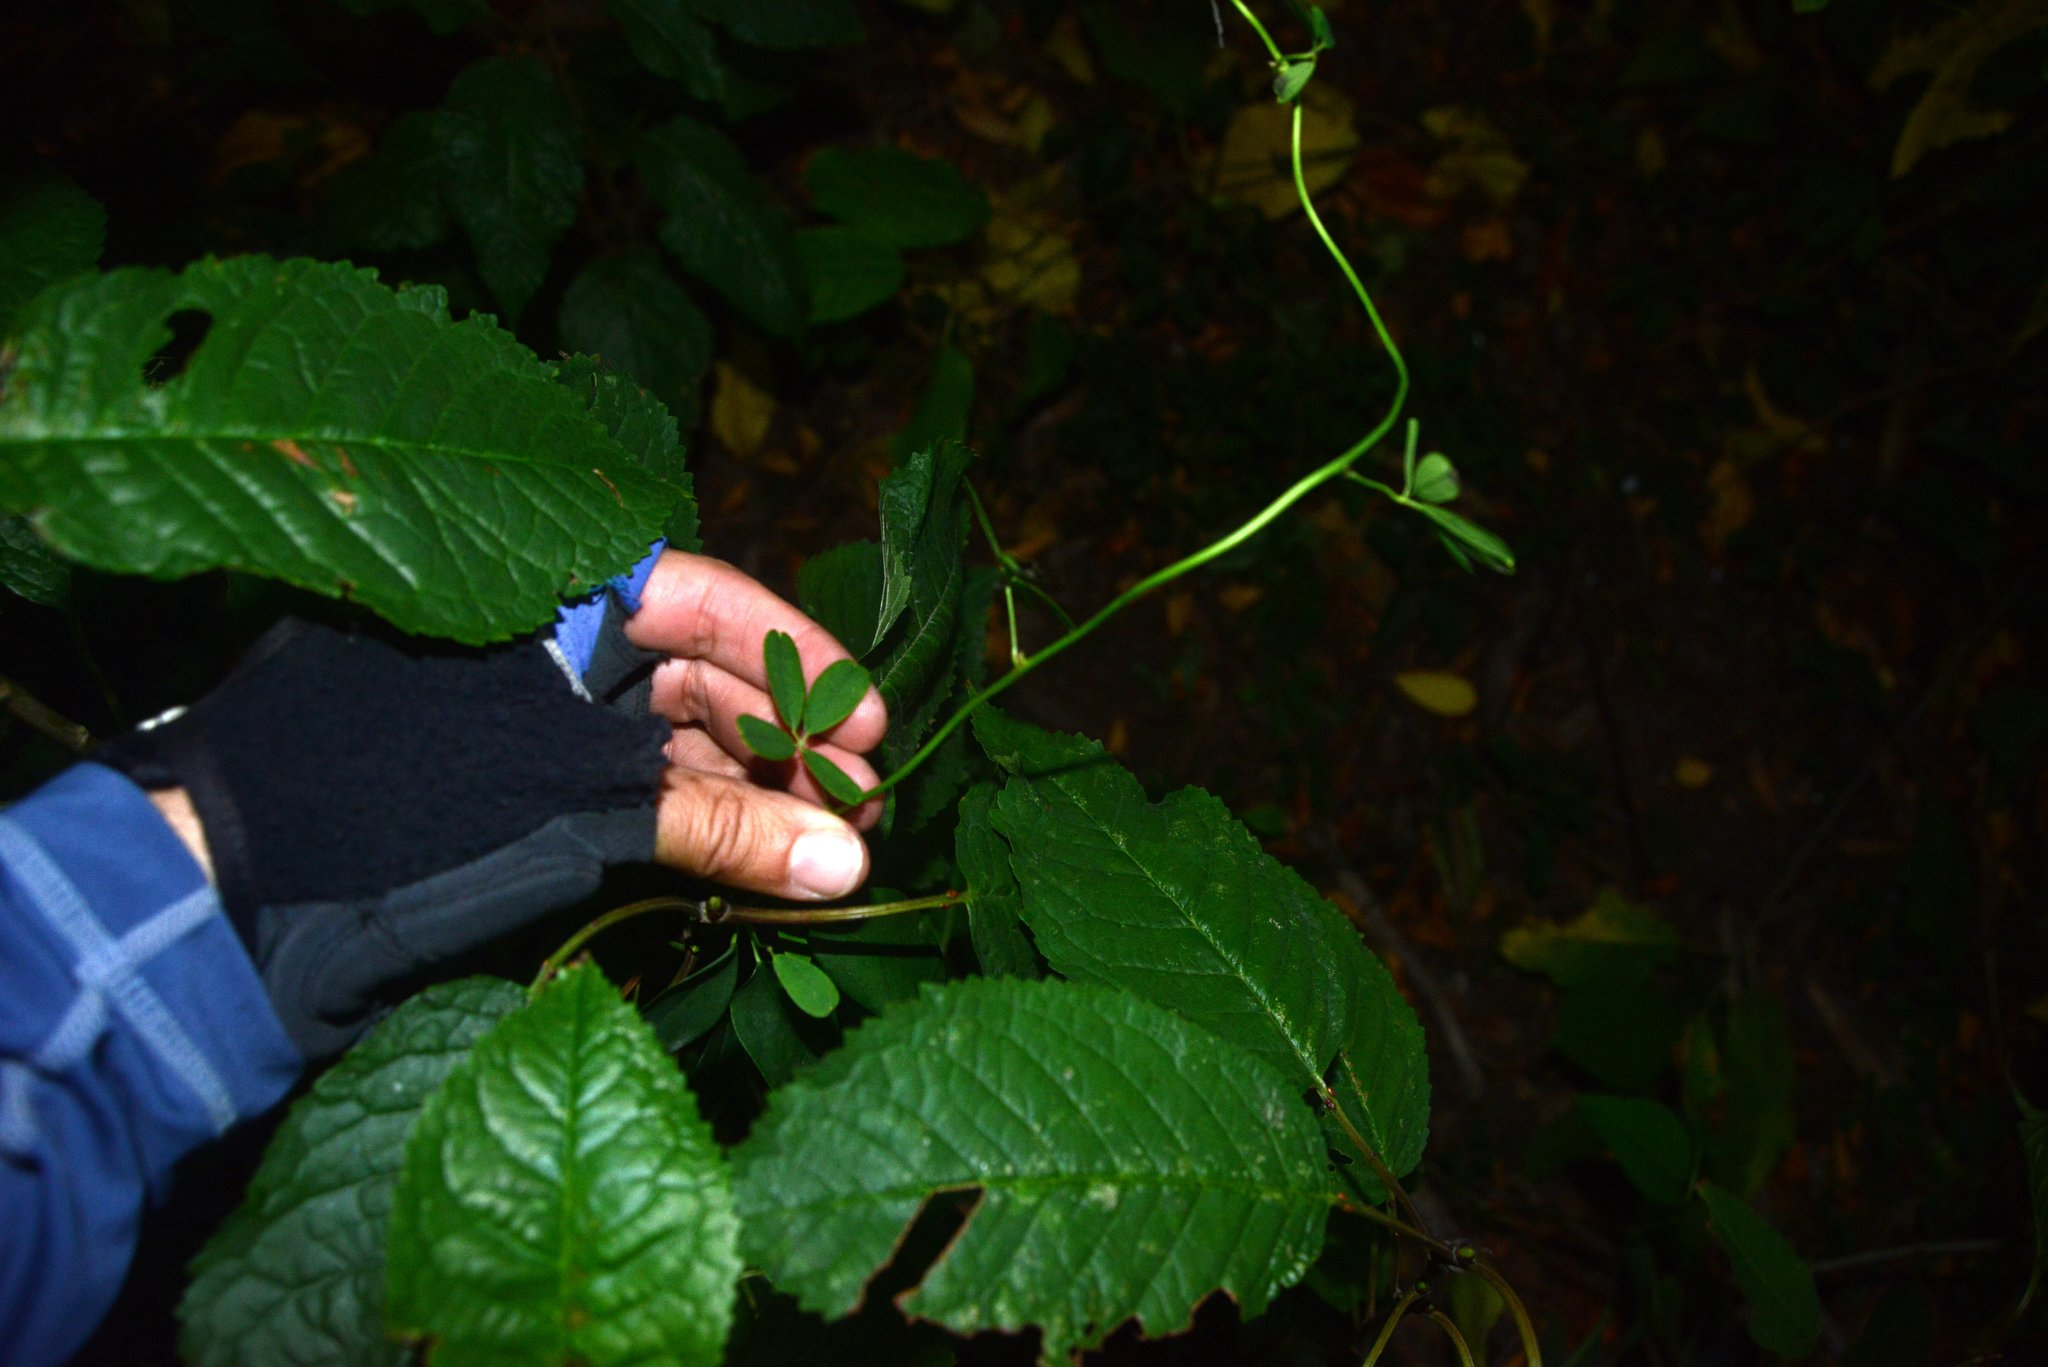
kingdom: Plantae
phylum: Tracheophyta
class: Magnoliopsida
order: Ranunculales
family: Lardizabalaceae
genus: Akebia
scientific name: Akebia quinata
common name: Five-leaf akebia
